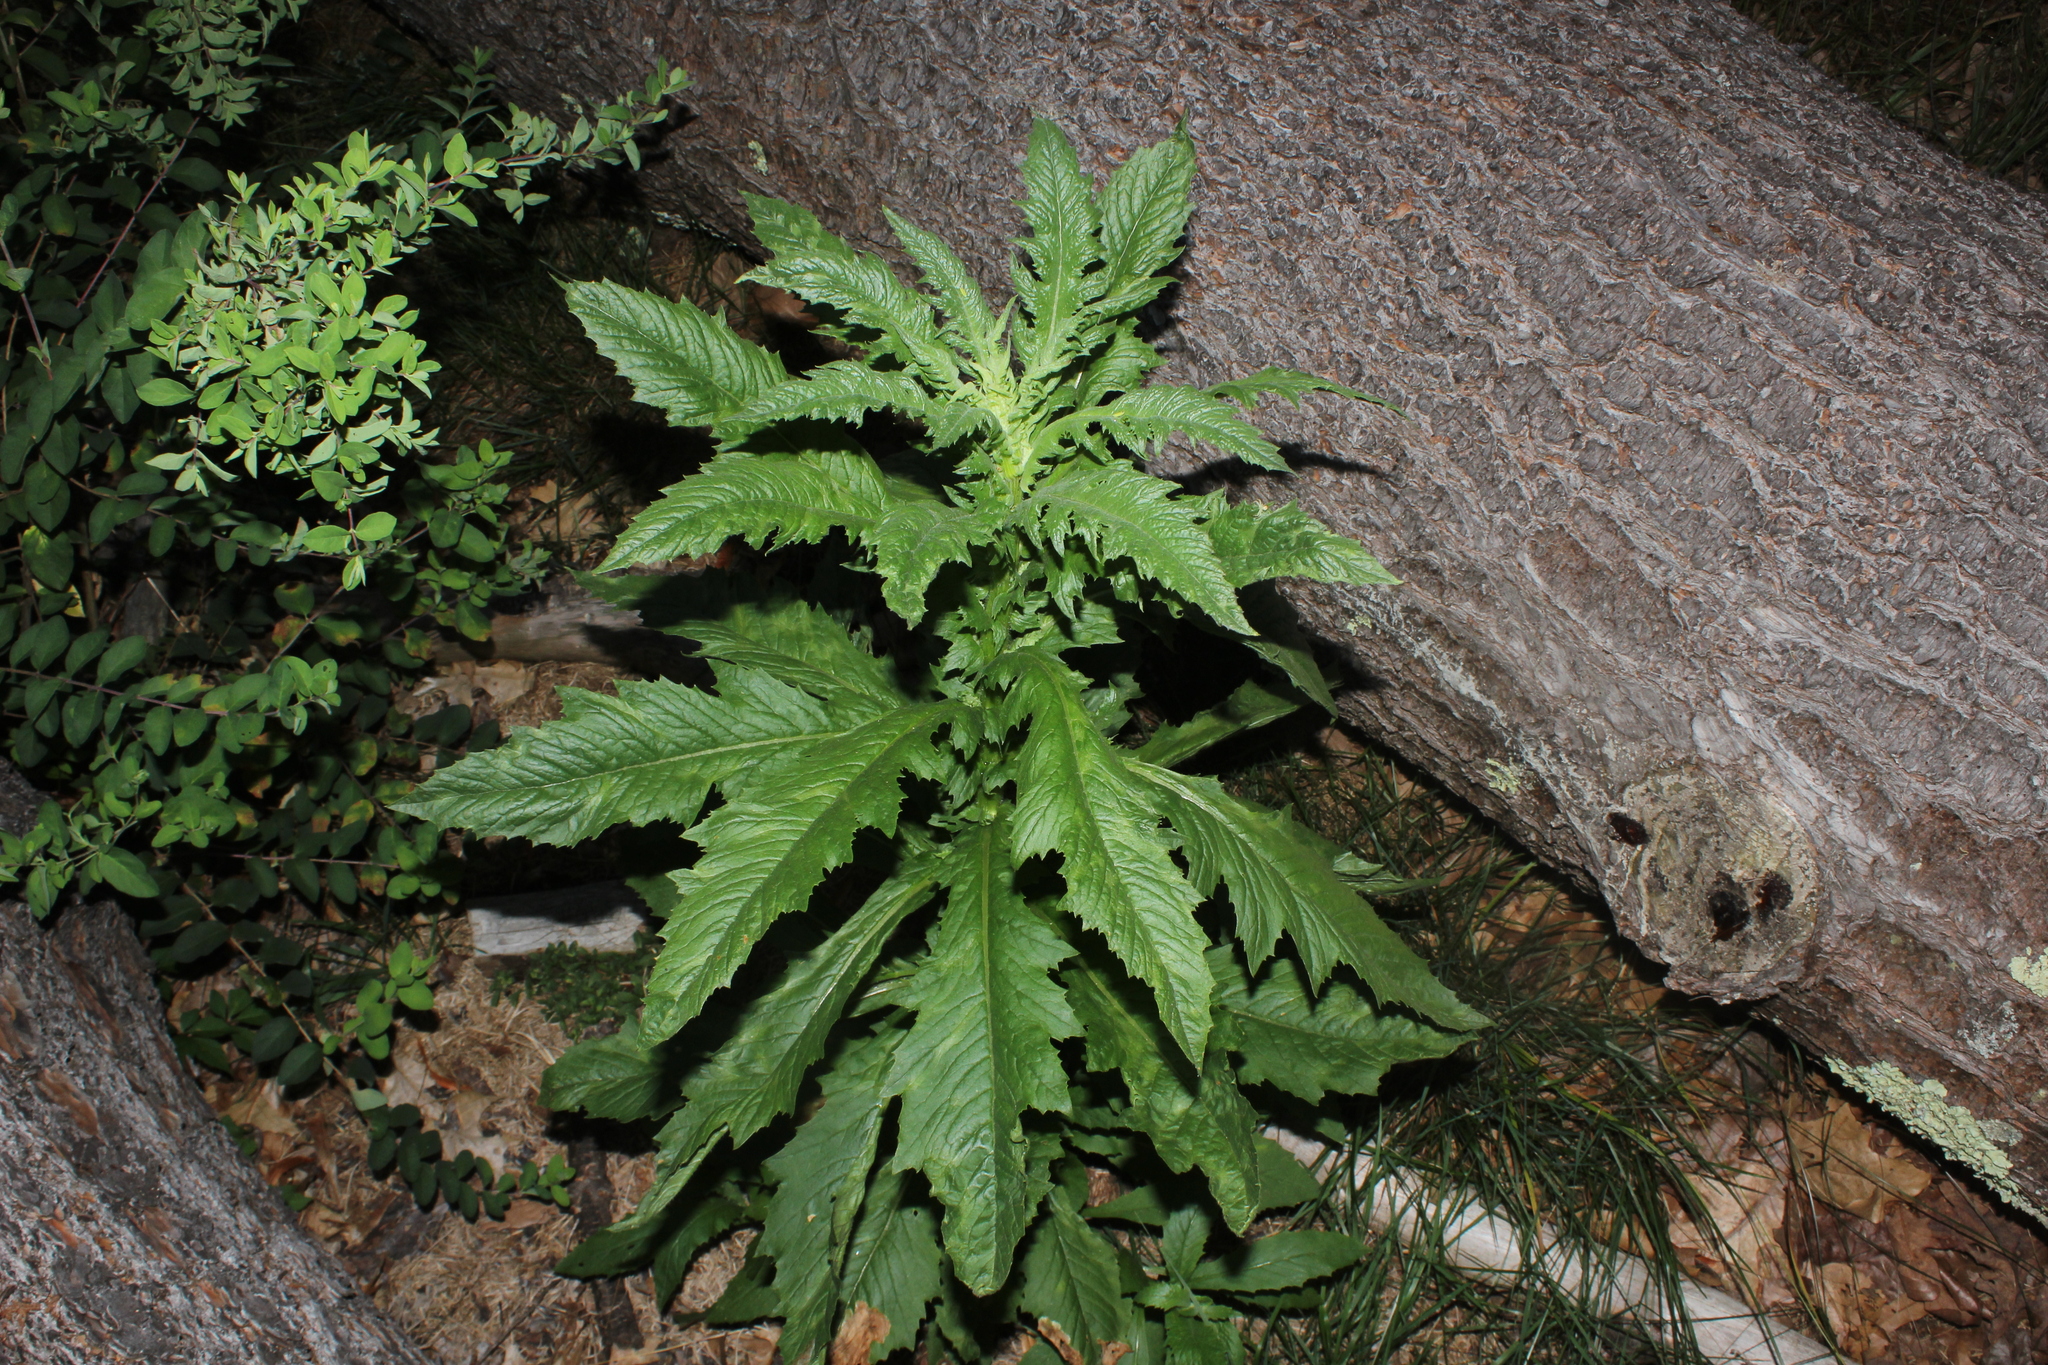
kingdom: Plantae
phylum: Tracheophyta
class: Magnoliopsida
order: Asterales
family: Asteraceae
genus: Erechtites
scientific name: Erechtites hieraciifolius
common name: American burnweed
